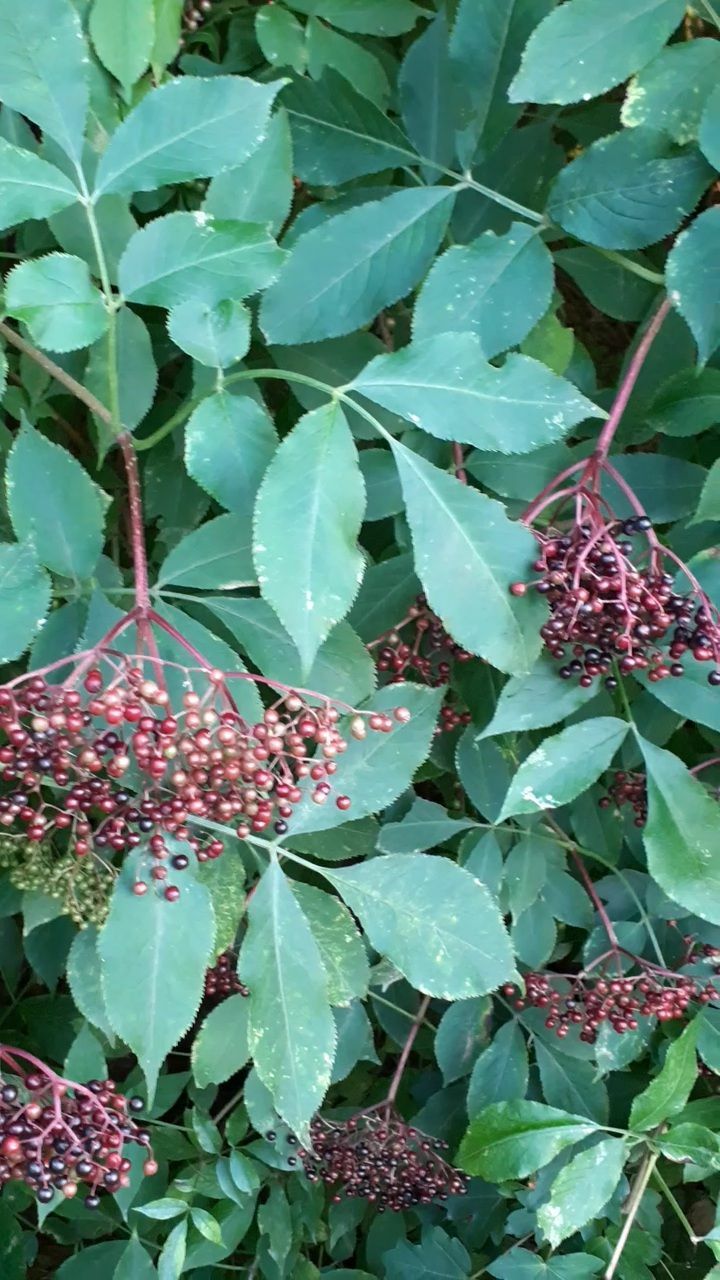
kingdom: Plantae
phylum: Tracheophyta
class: Magnoliopsida
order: Dipsacales
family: Viburnaceae
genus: Sambucus
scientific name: Sambucus nigra
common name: Elder
